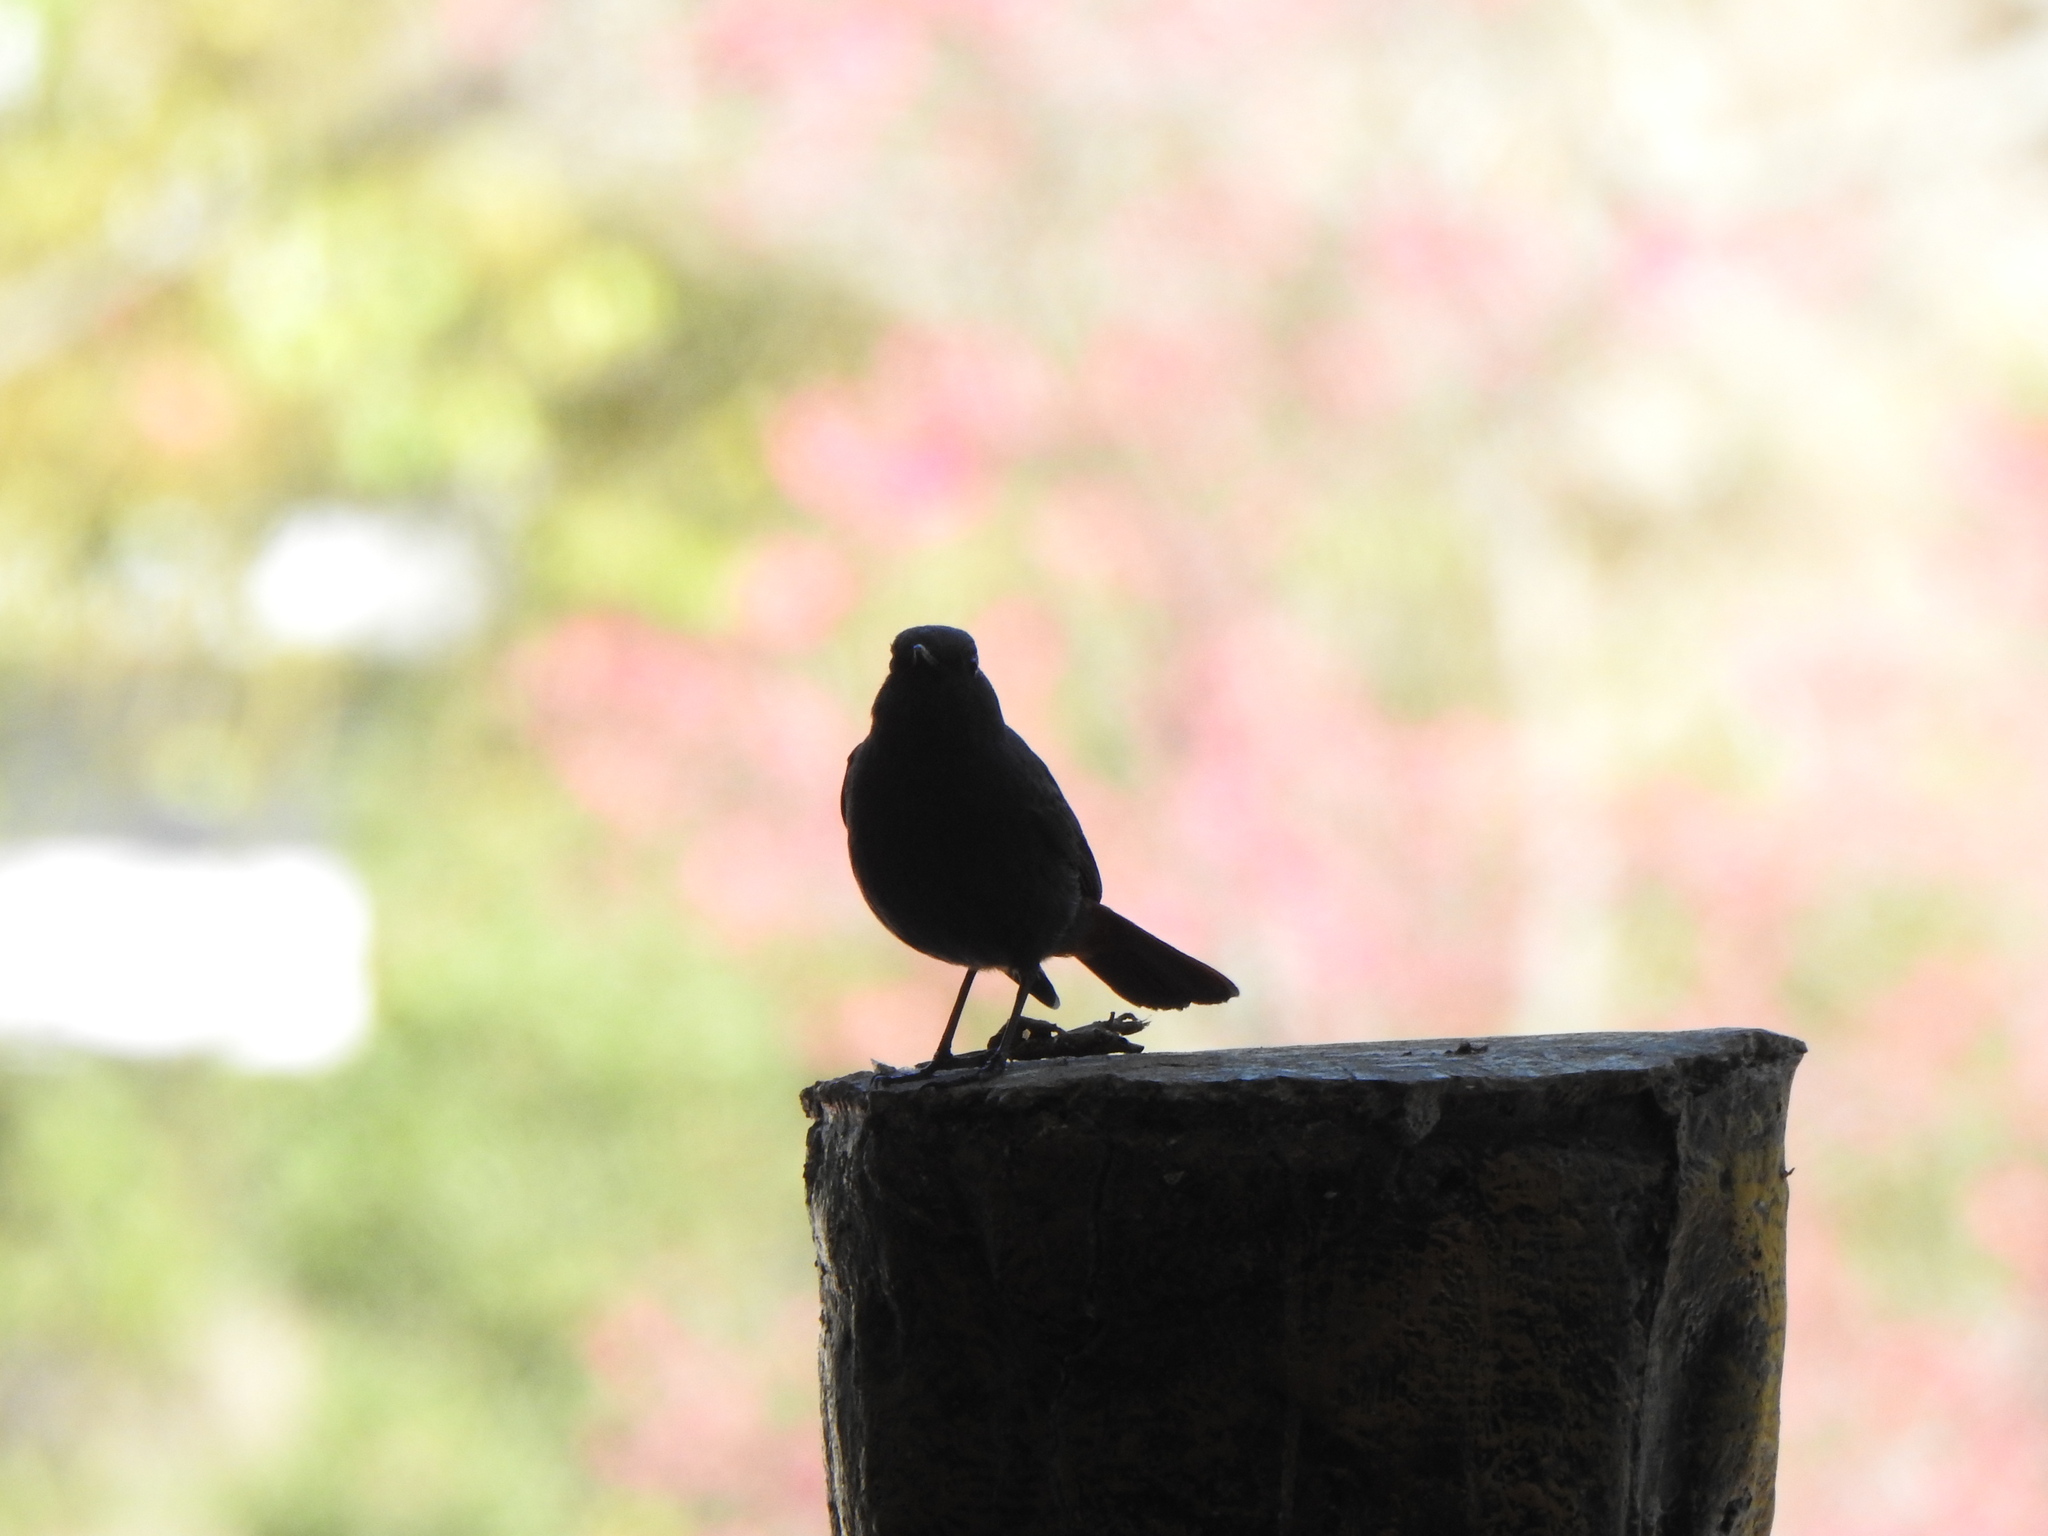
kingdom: Animalia
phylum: Chordata
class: Aves
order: Passeriformes
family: Muscicapidae
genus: Phoenicurus
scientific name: Phoenicurus fuliginosus
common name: Plumbeous water redstart
